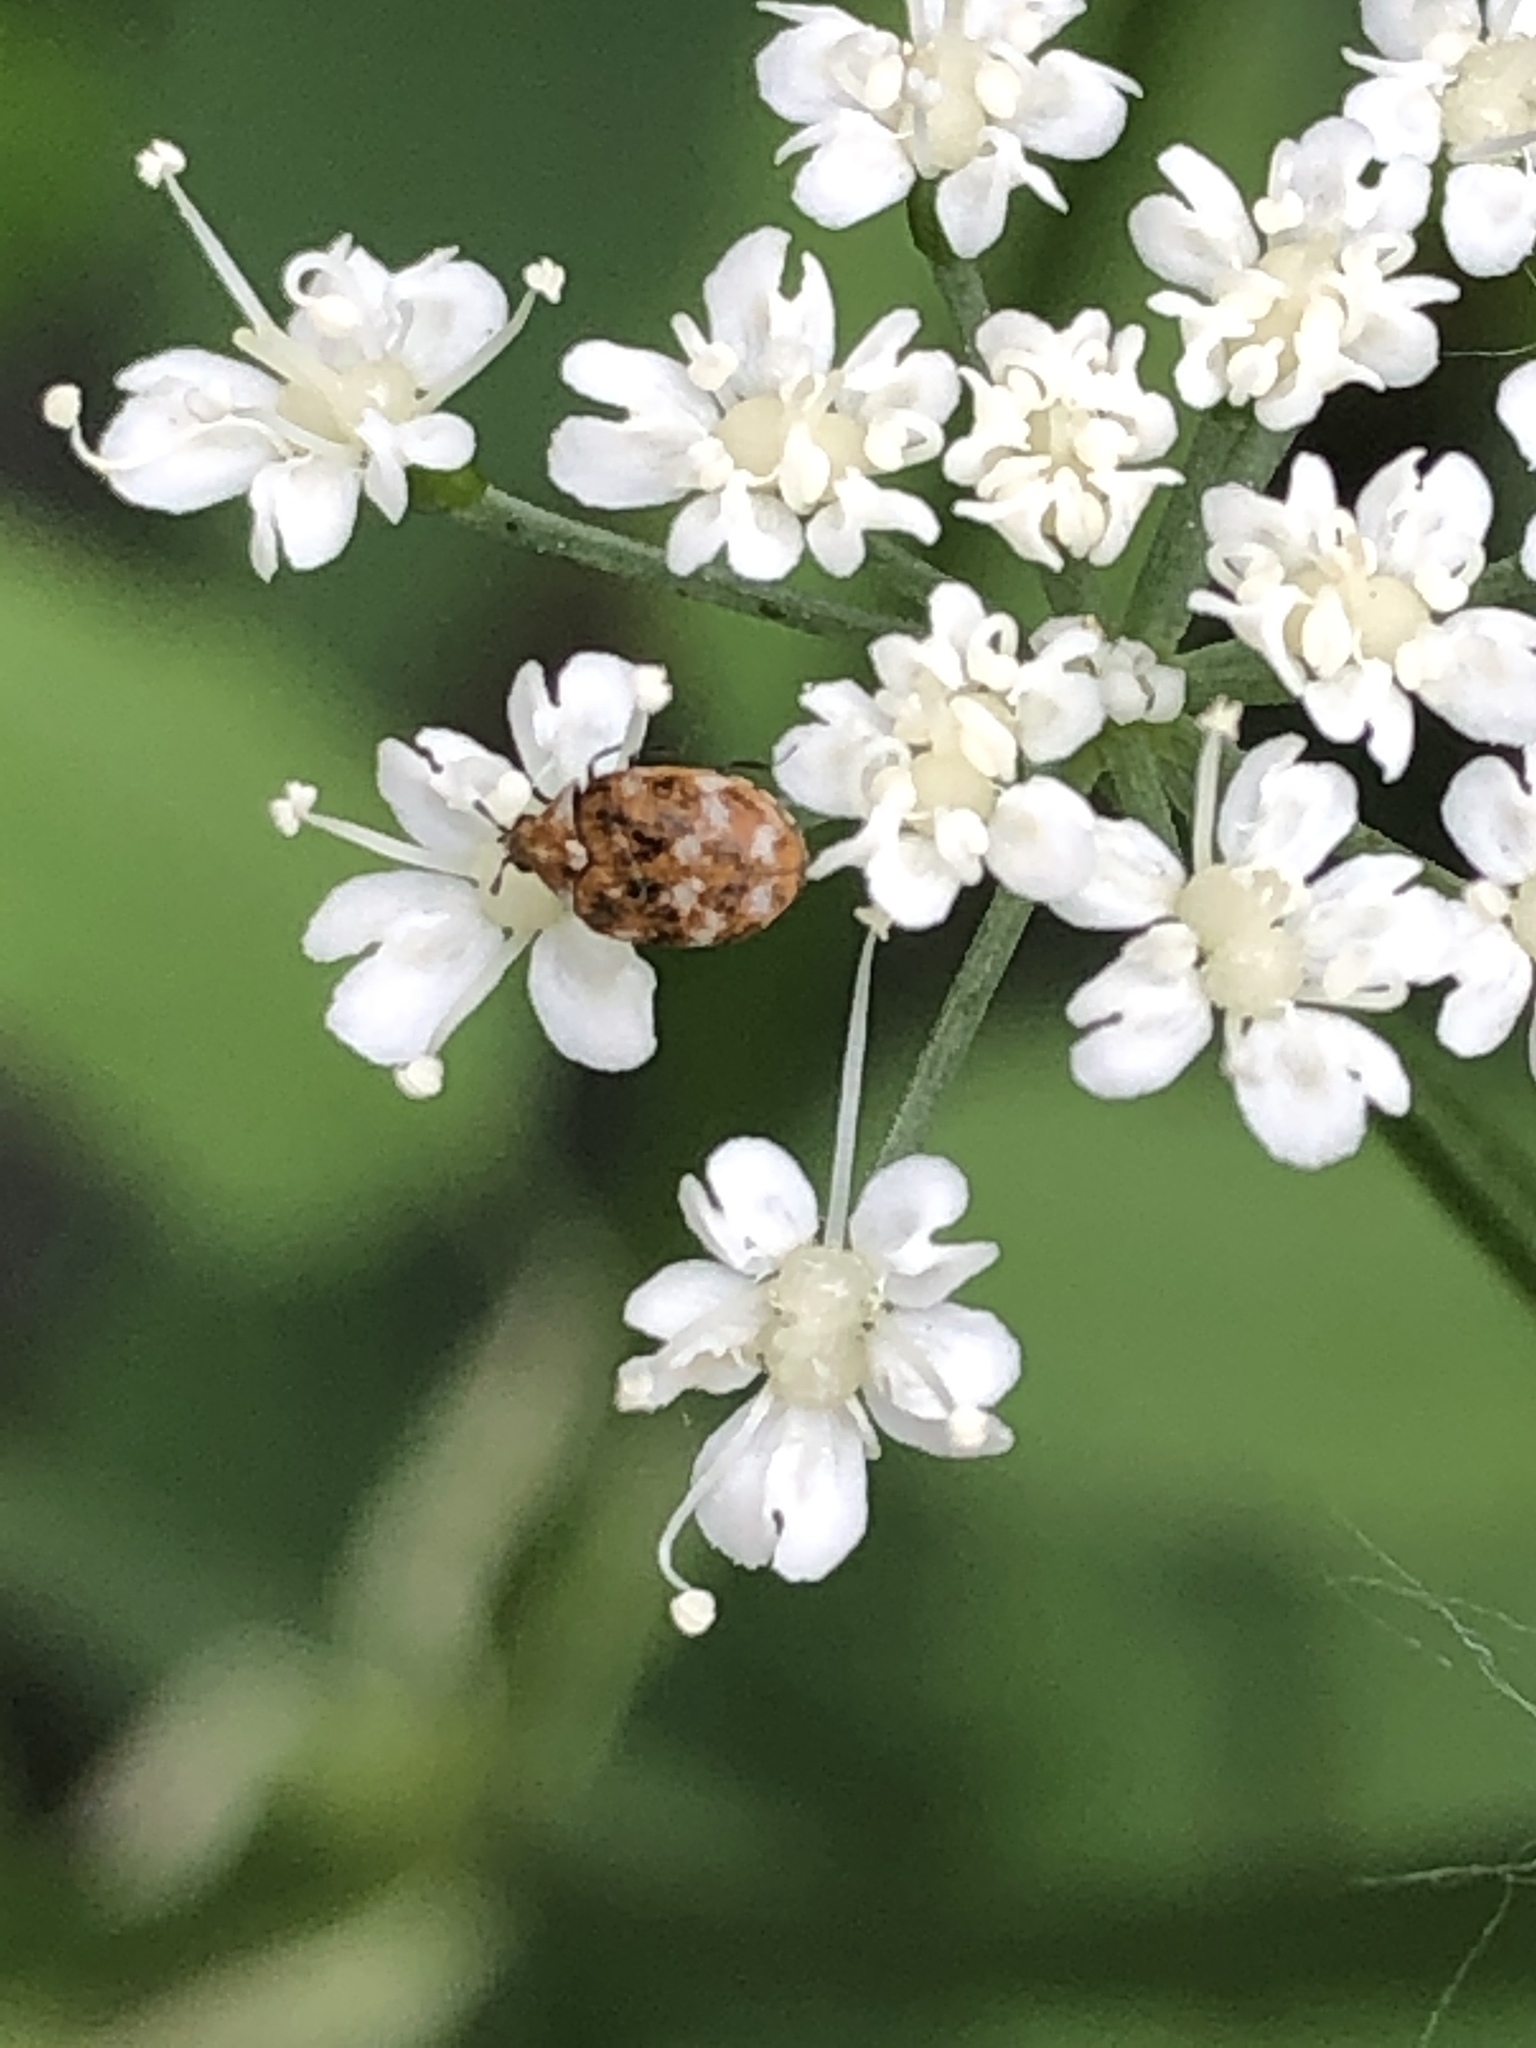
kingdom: Animalia
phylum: Arthropoda
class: Insecta
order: Coleoptera
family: Dermestidae
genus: Anthrenus
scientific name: Anthrenus verbasci
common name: Varied carpet beetle
